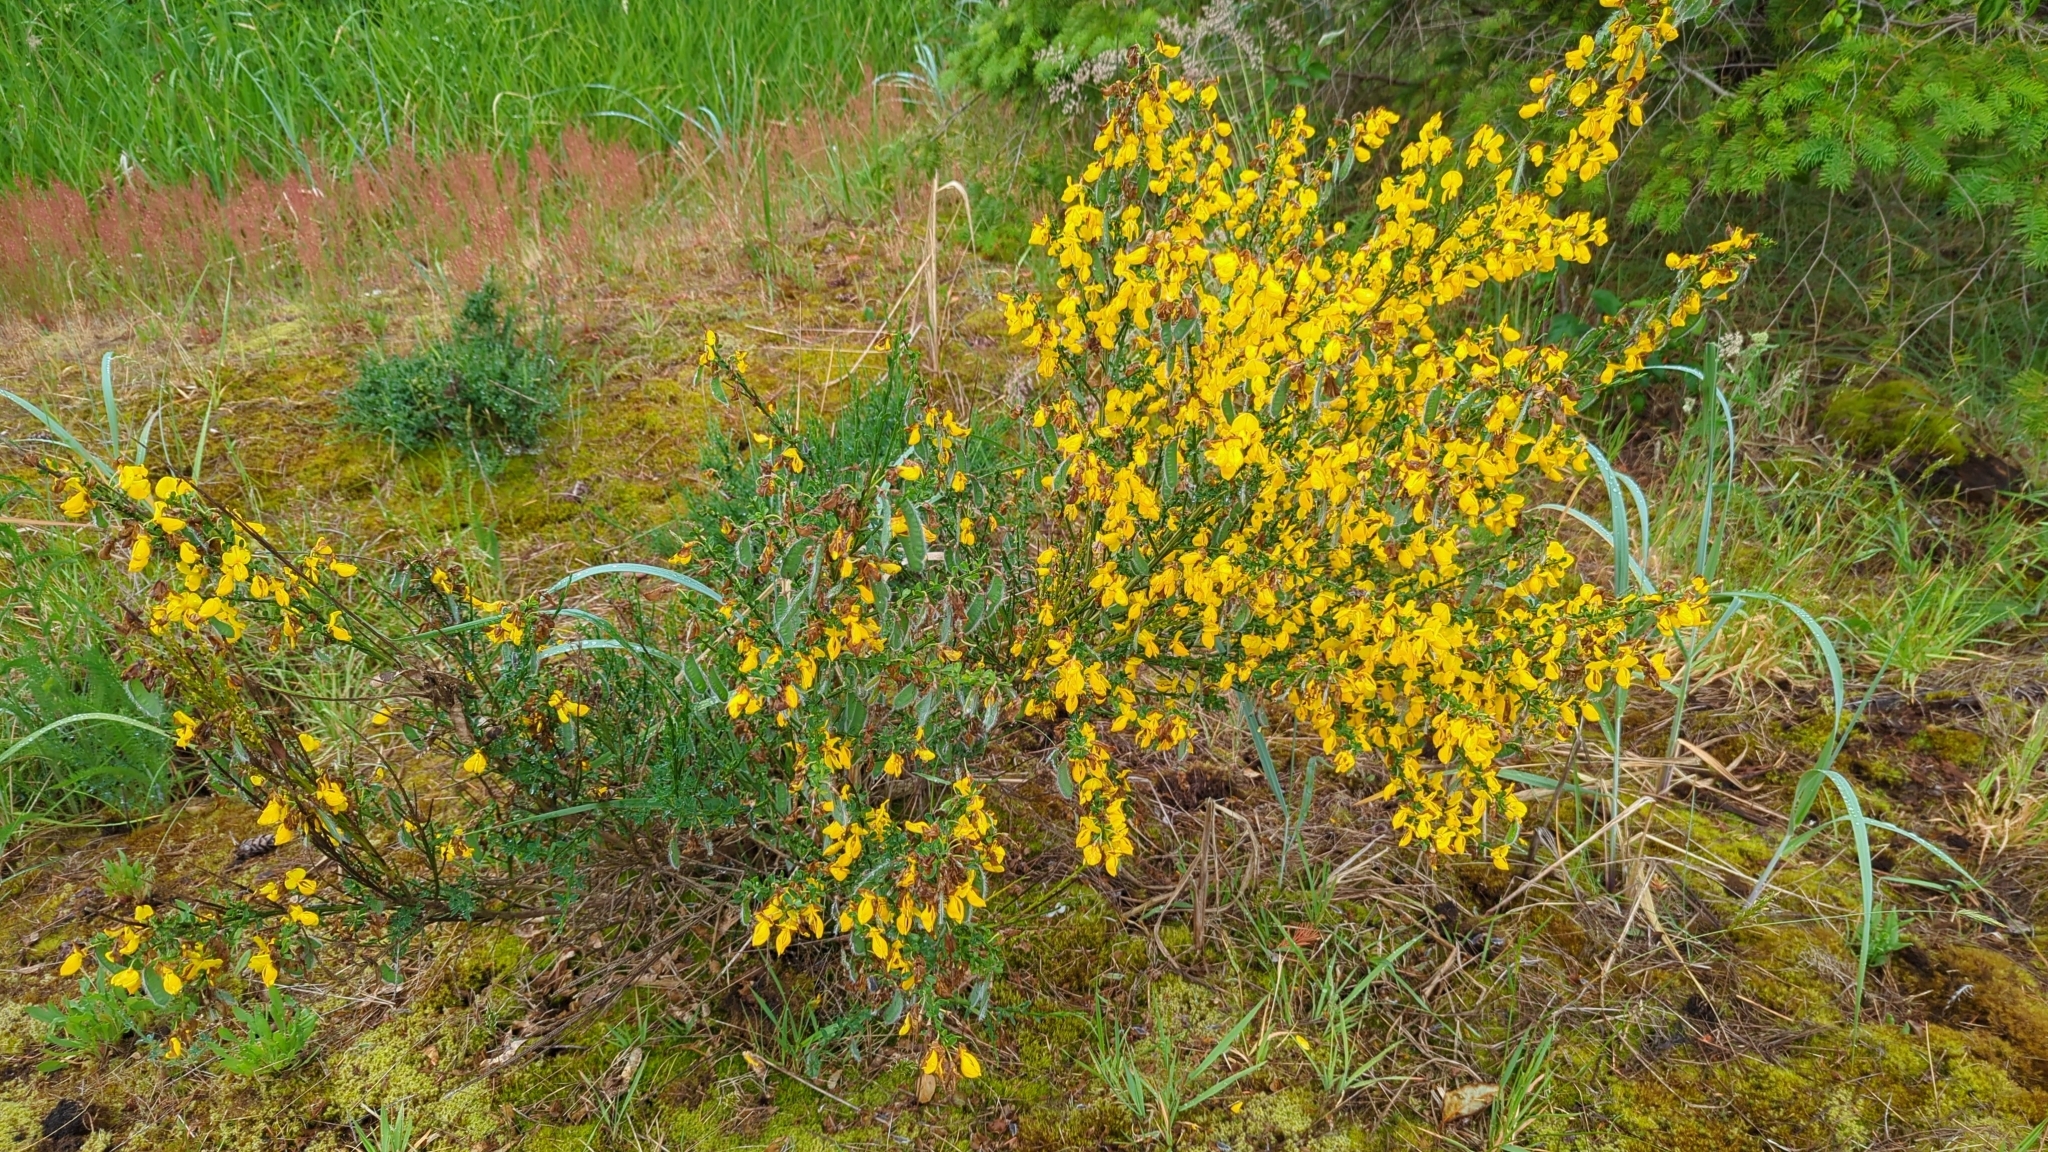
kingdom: Plantae
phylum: Tracheophyta
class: Magnoliopsida
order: Fabales
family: Fabaceae
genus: Cytisus
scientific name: Cytisus scoparius
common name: Scotch broom
